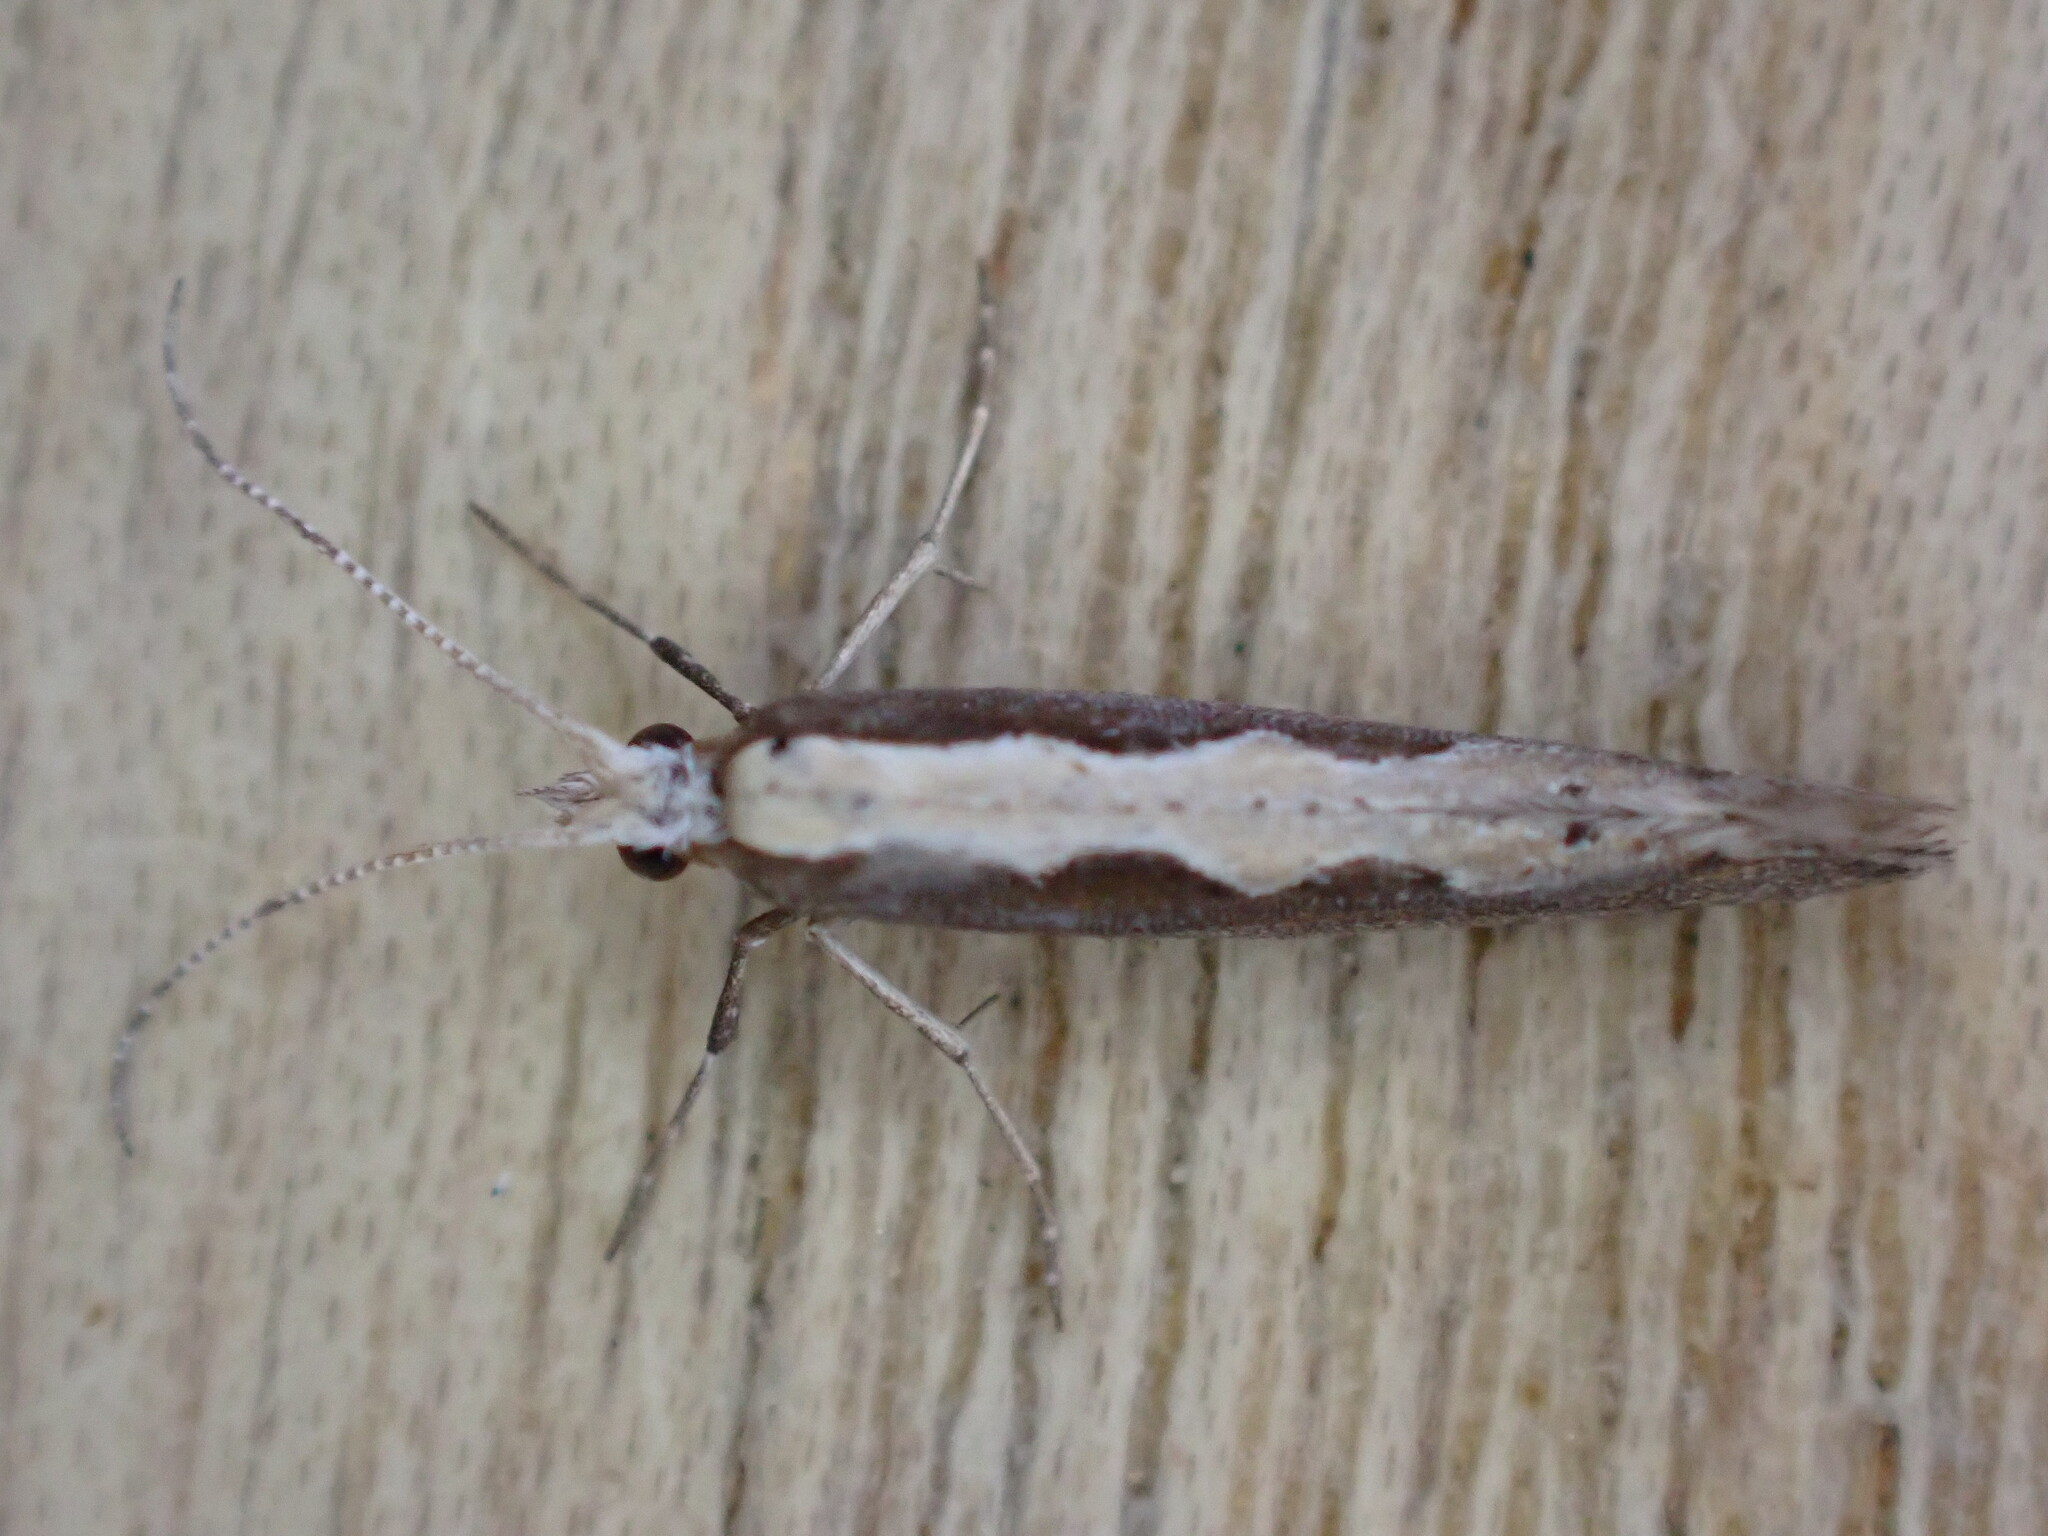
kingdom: Animalia
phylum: Arthropoda
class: Insecta
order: Lepidoptera
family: Plutellidae
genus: Plutella
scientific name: Plutella xylostella
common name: Diamond-back moth
